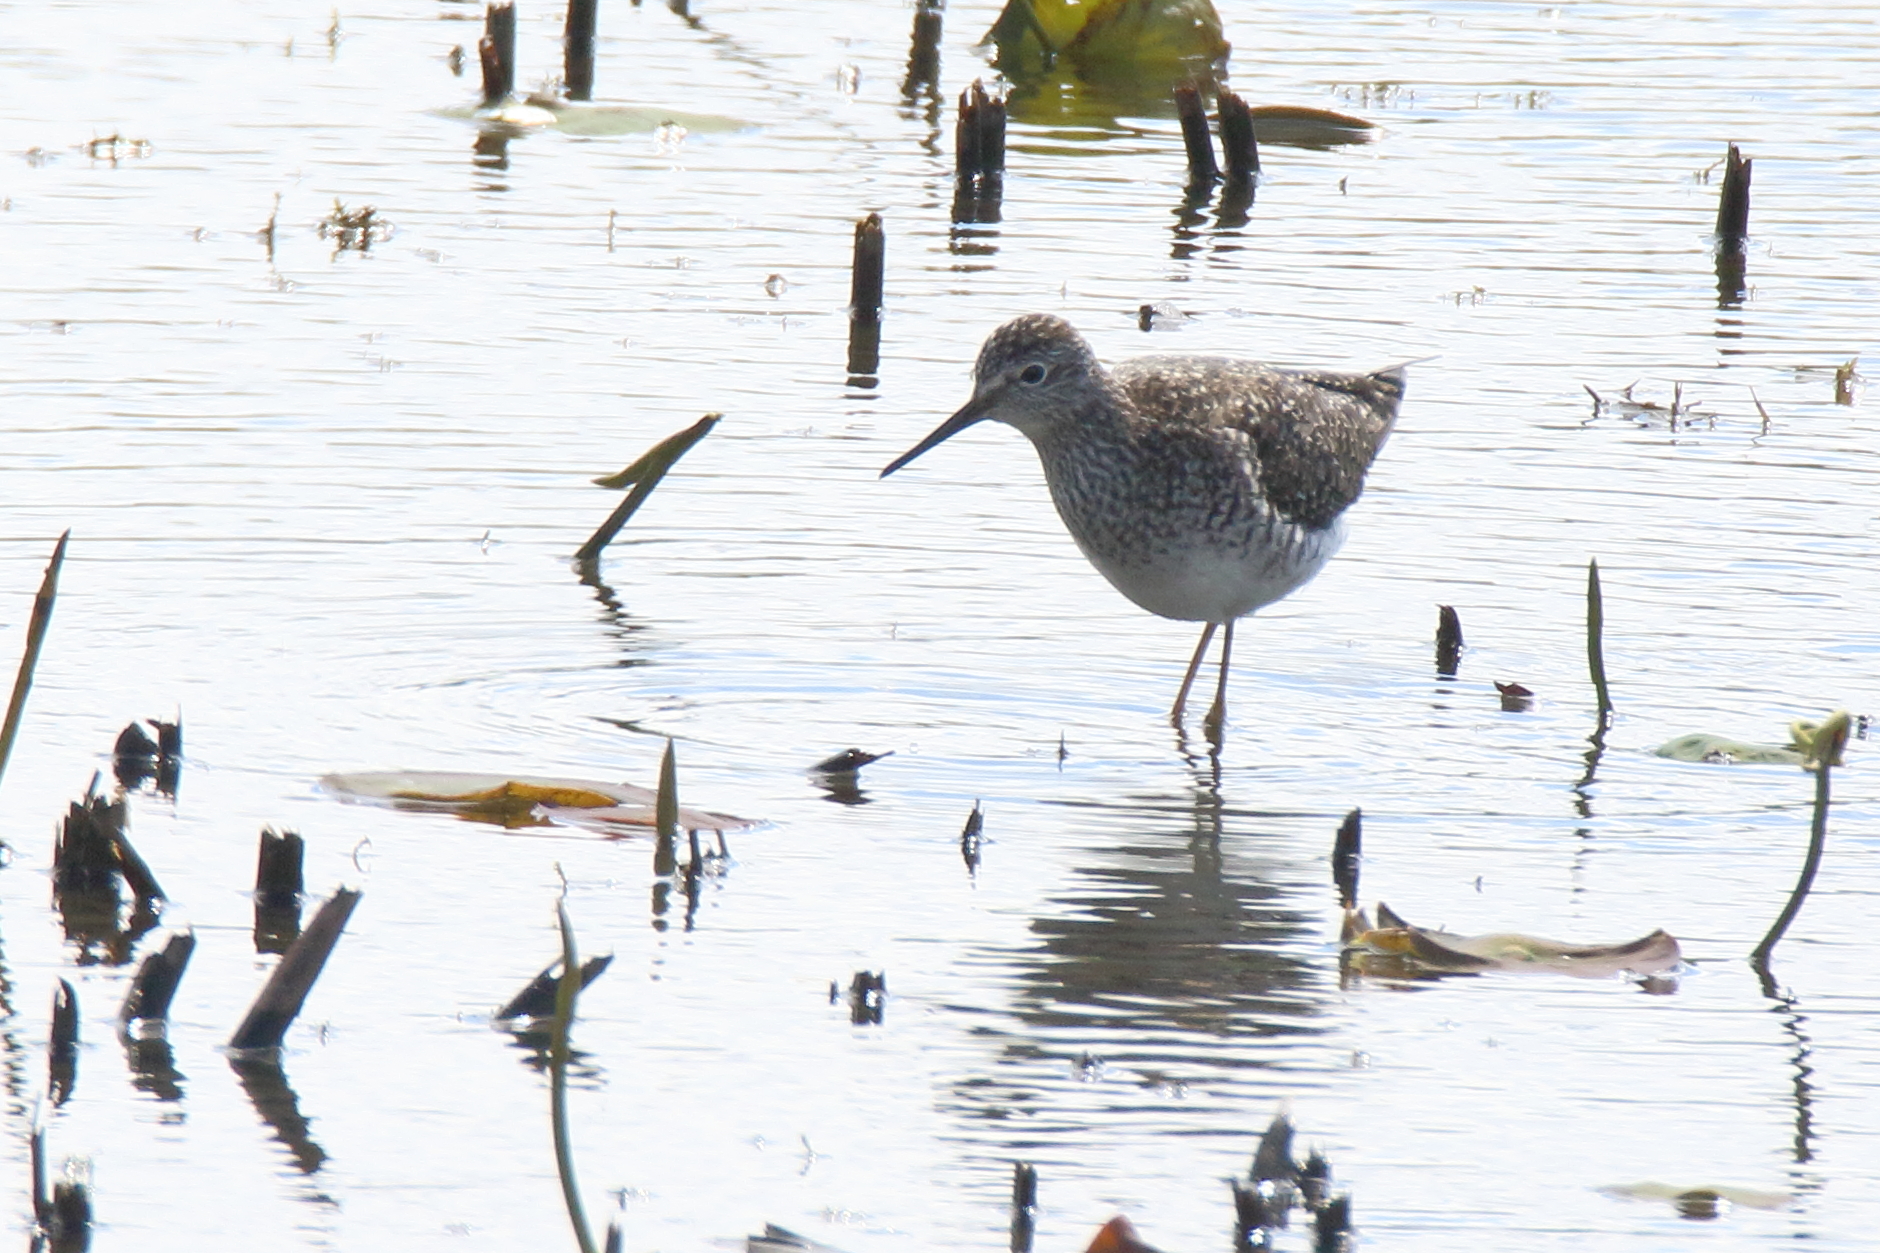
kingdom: Animalia
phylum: Chordata
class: Aves
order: Charadriiformes
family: Scolopacidae
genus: Tringa
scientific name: Tringa melanoleuca
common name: Greater yellowlegs
